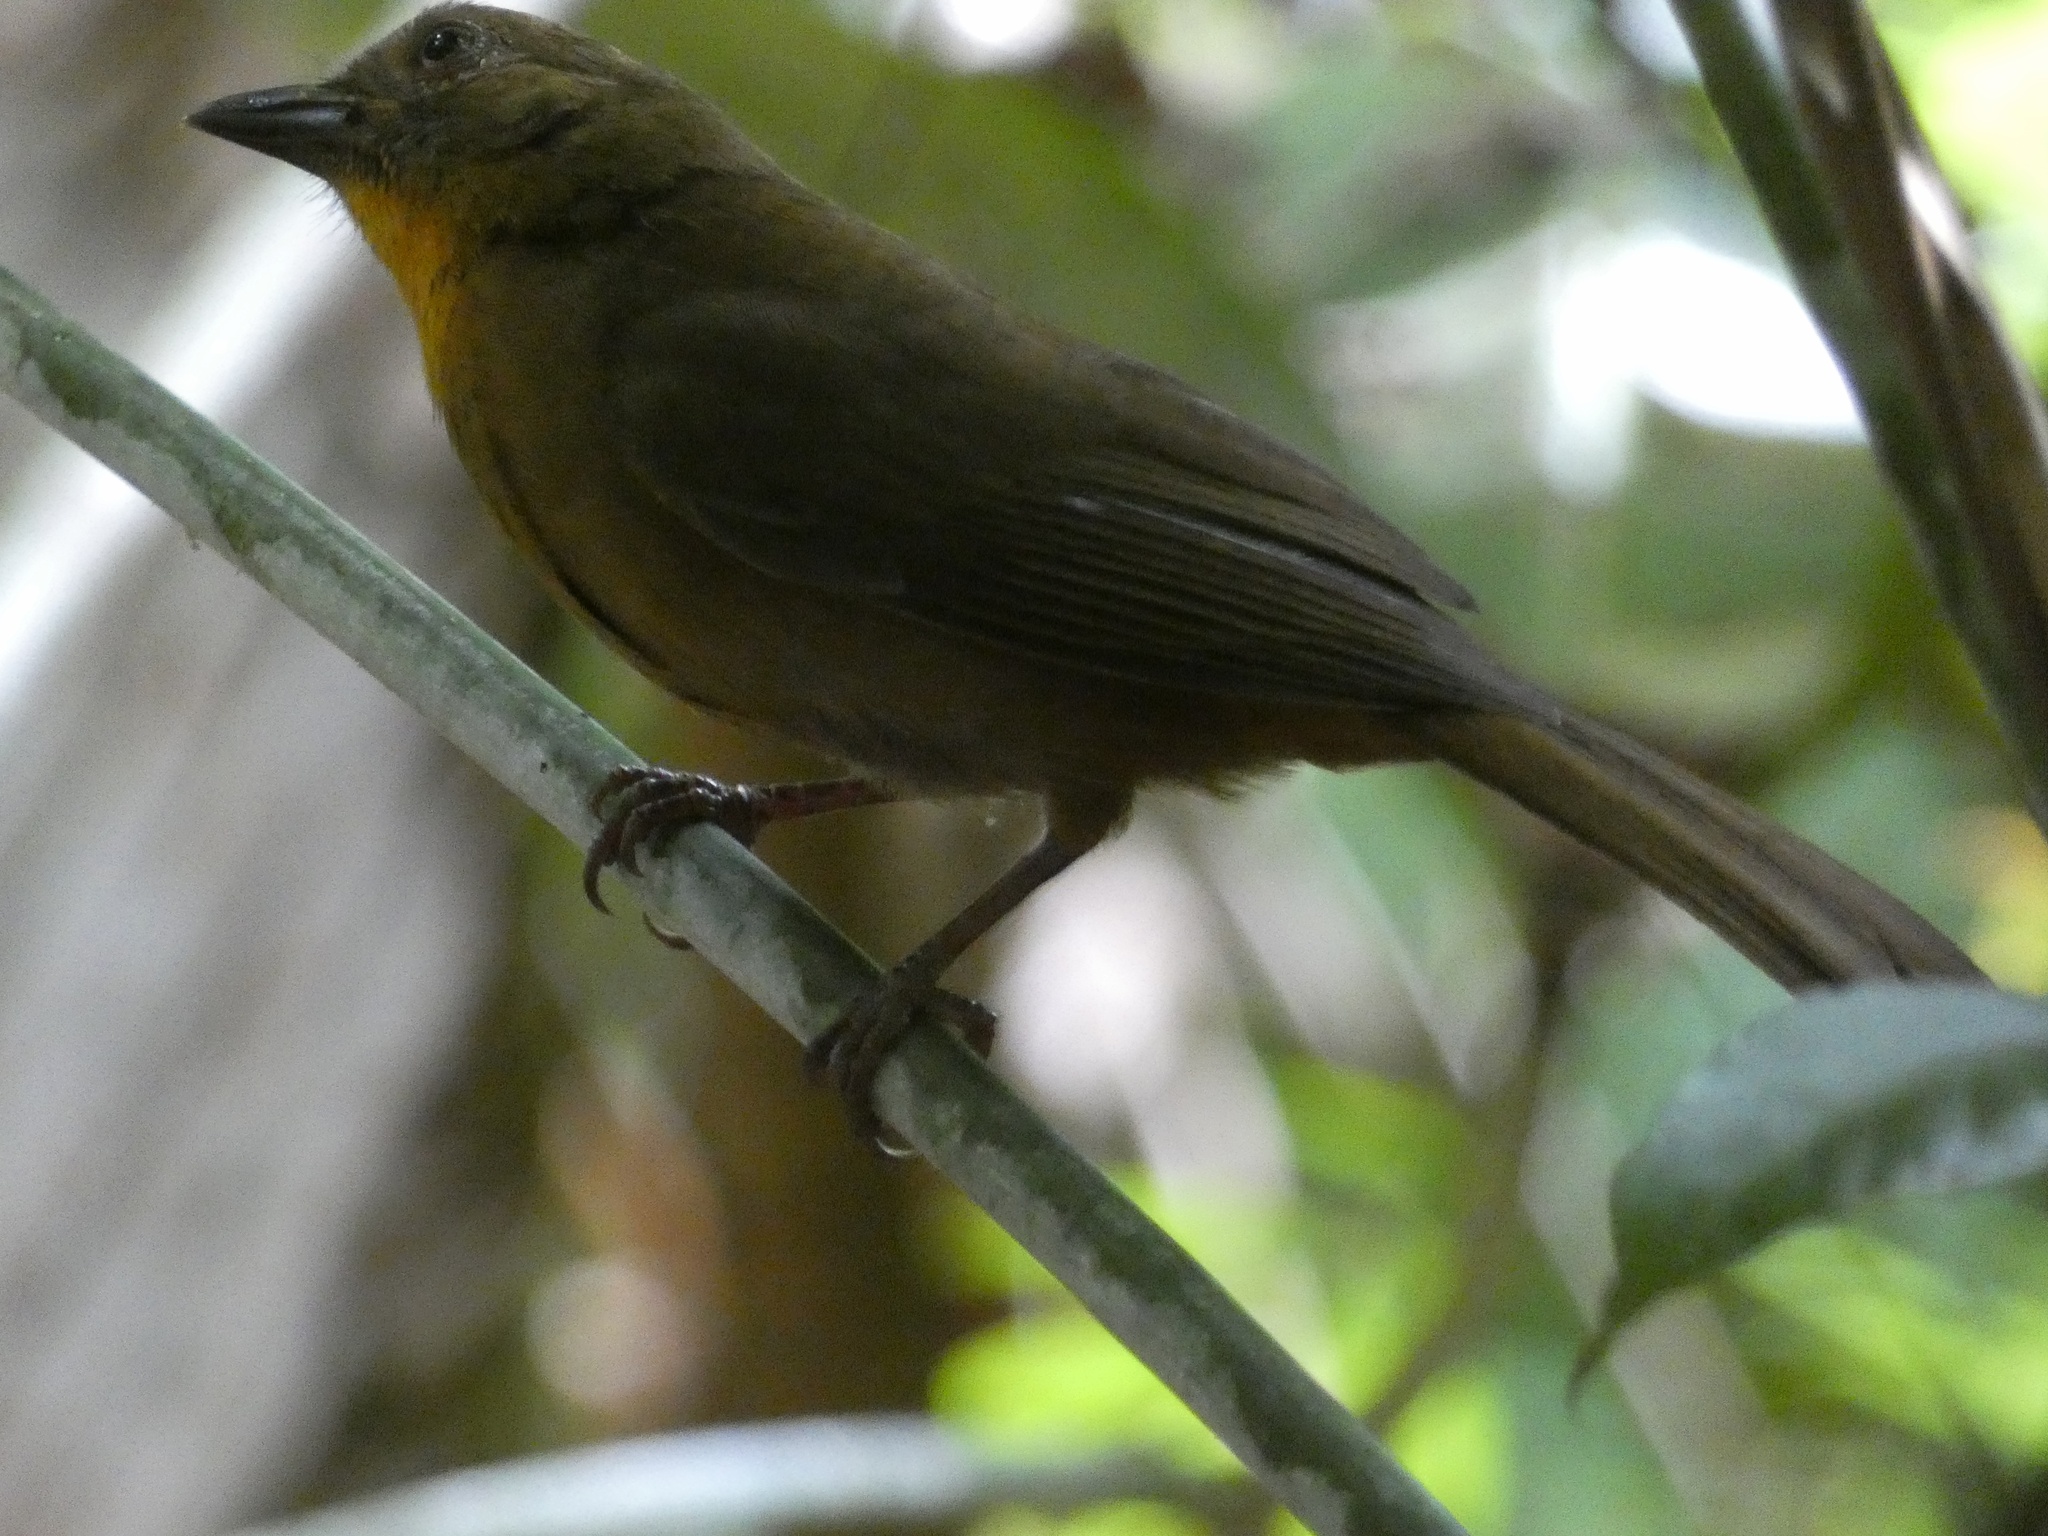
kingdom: Animalia
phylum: Chordata
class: Aves
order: Passeriformes
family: Cardinalidae
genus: Habia
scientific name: Habia fuscicauda
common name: Red-throated ant-tanager
